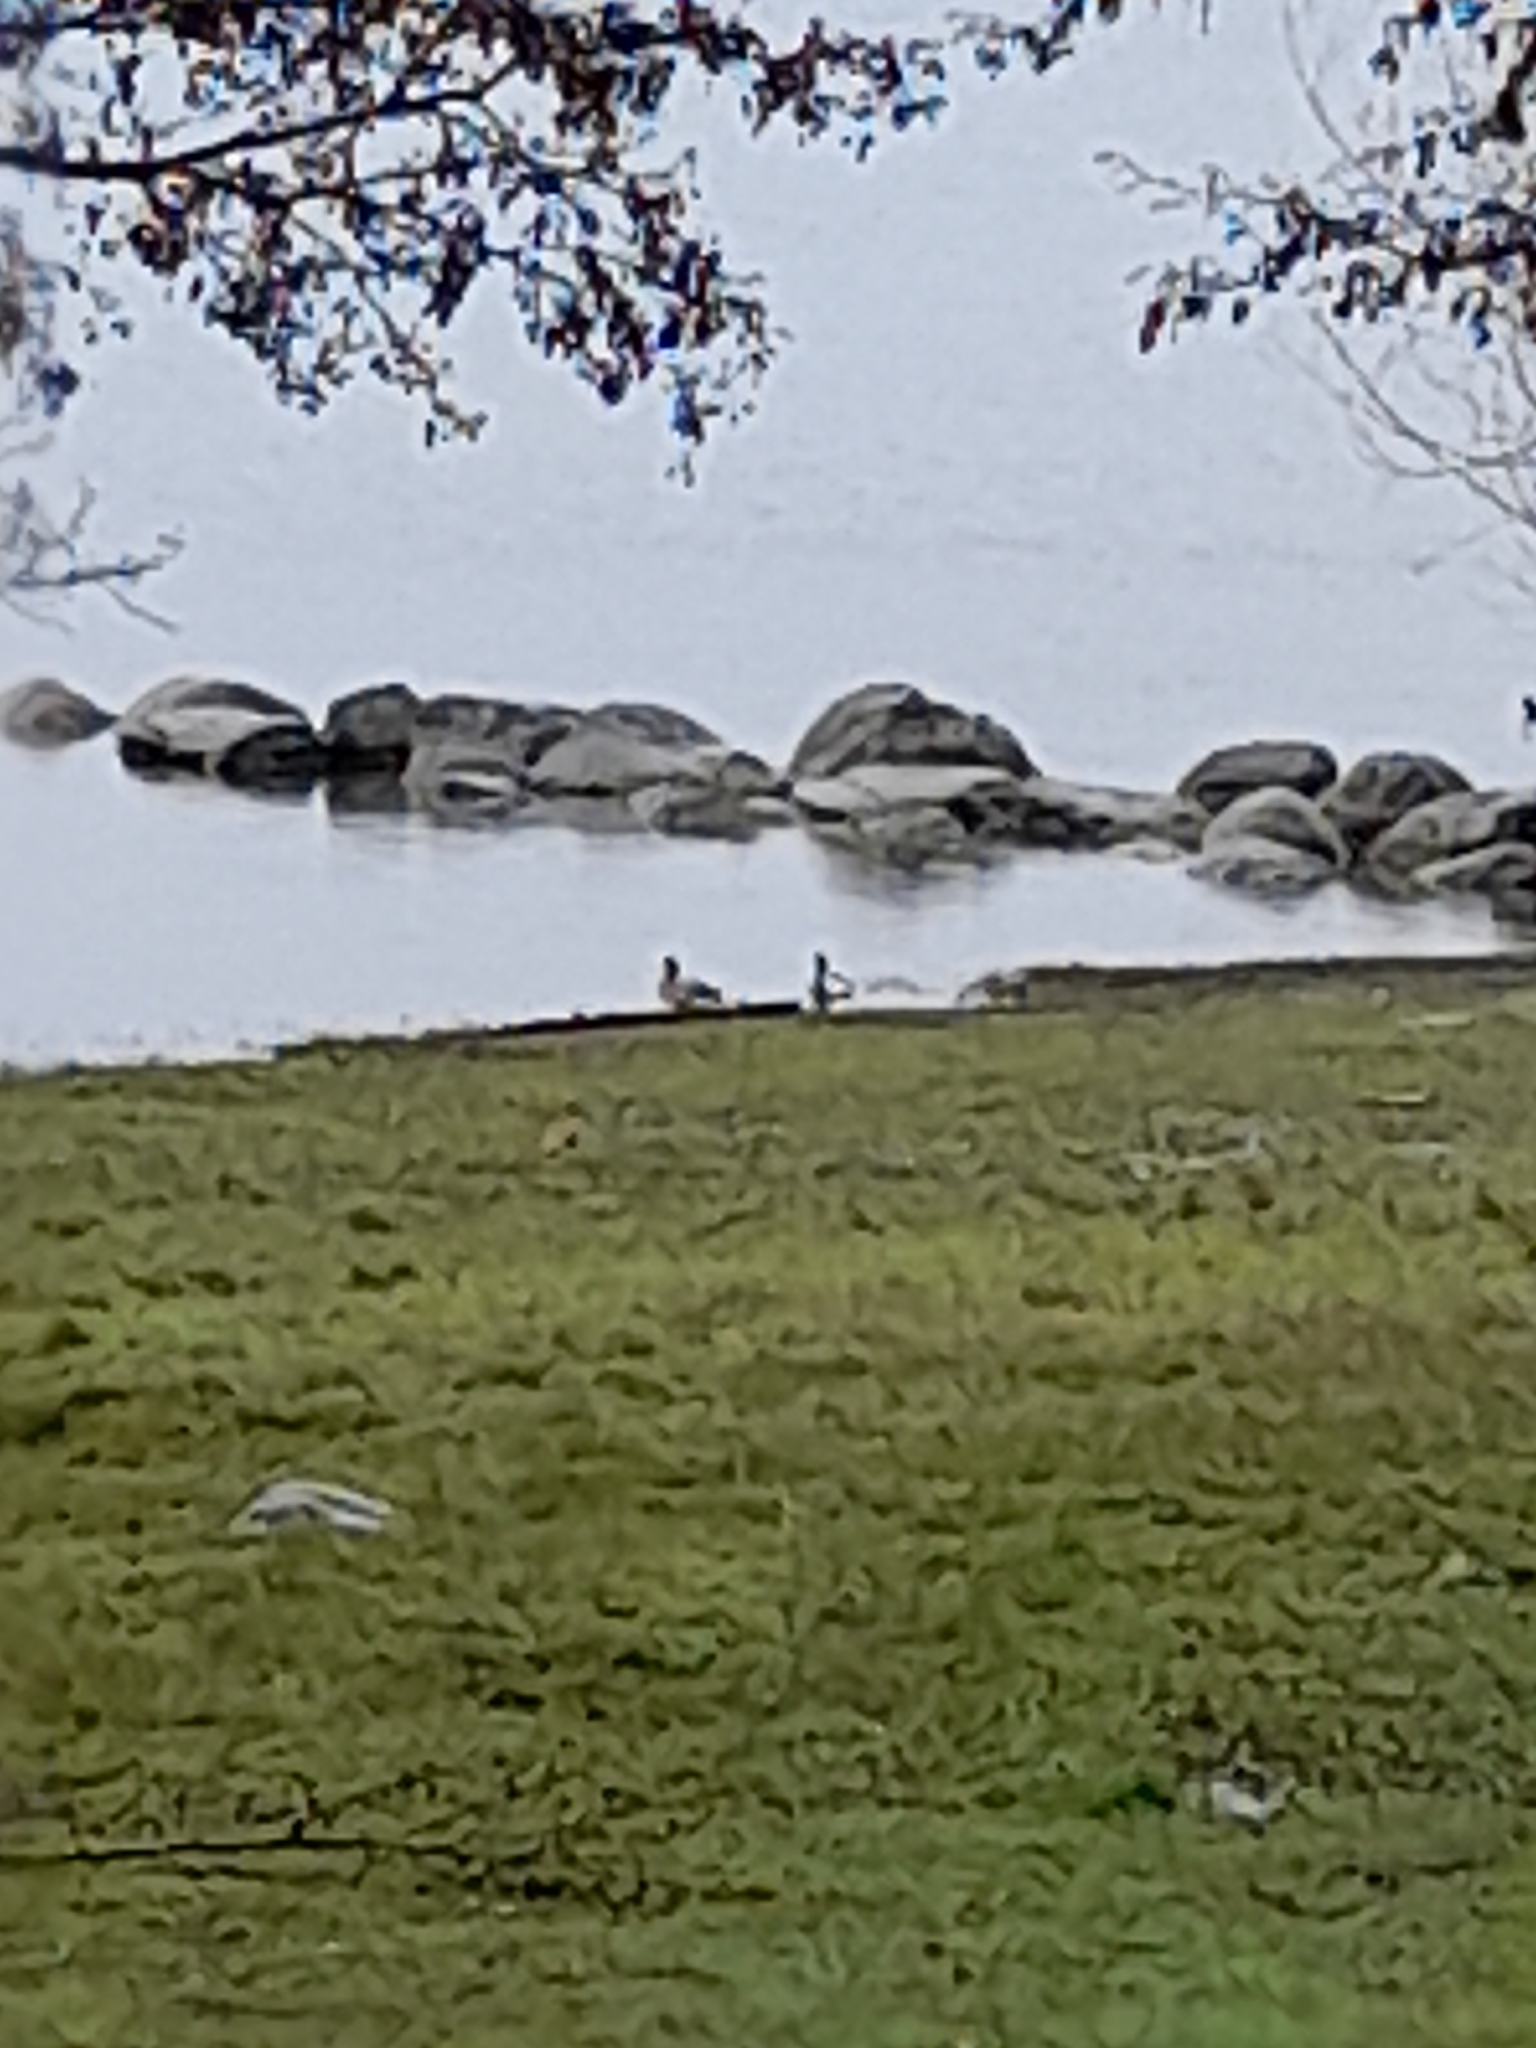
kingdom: Animalia
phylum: Chordata
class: Aves
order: Anseriformes
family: Anatidae
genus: Mareca
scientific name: Mareca sibilatrix
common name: Chiloe wigeon
